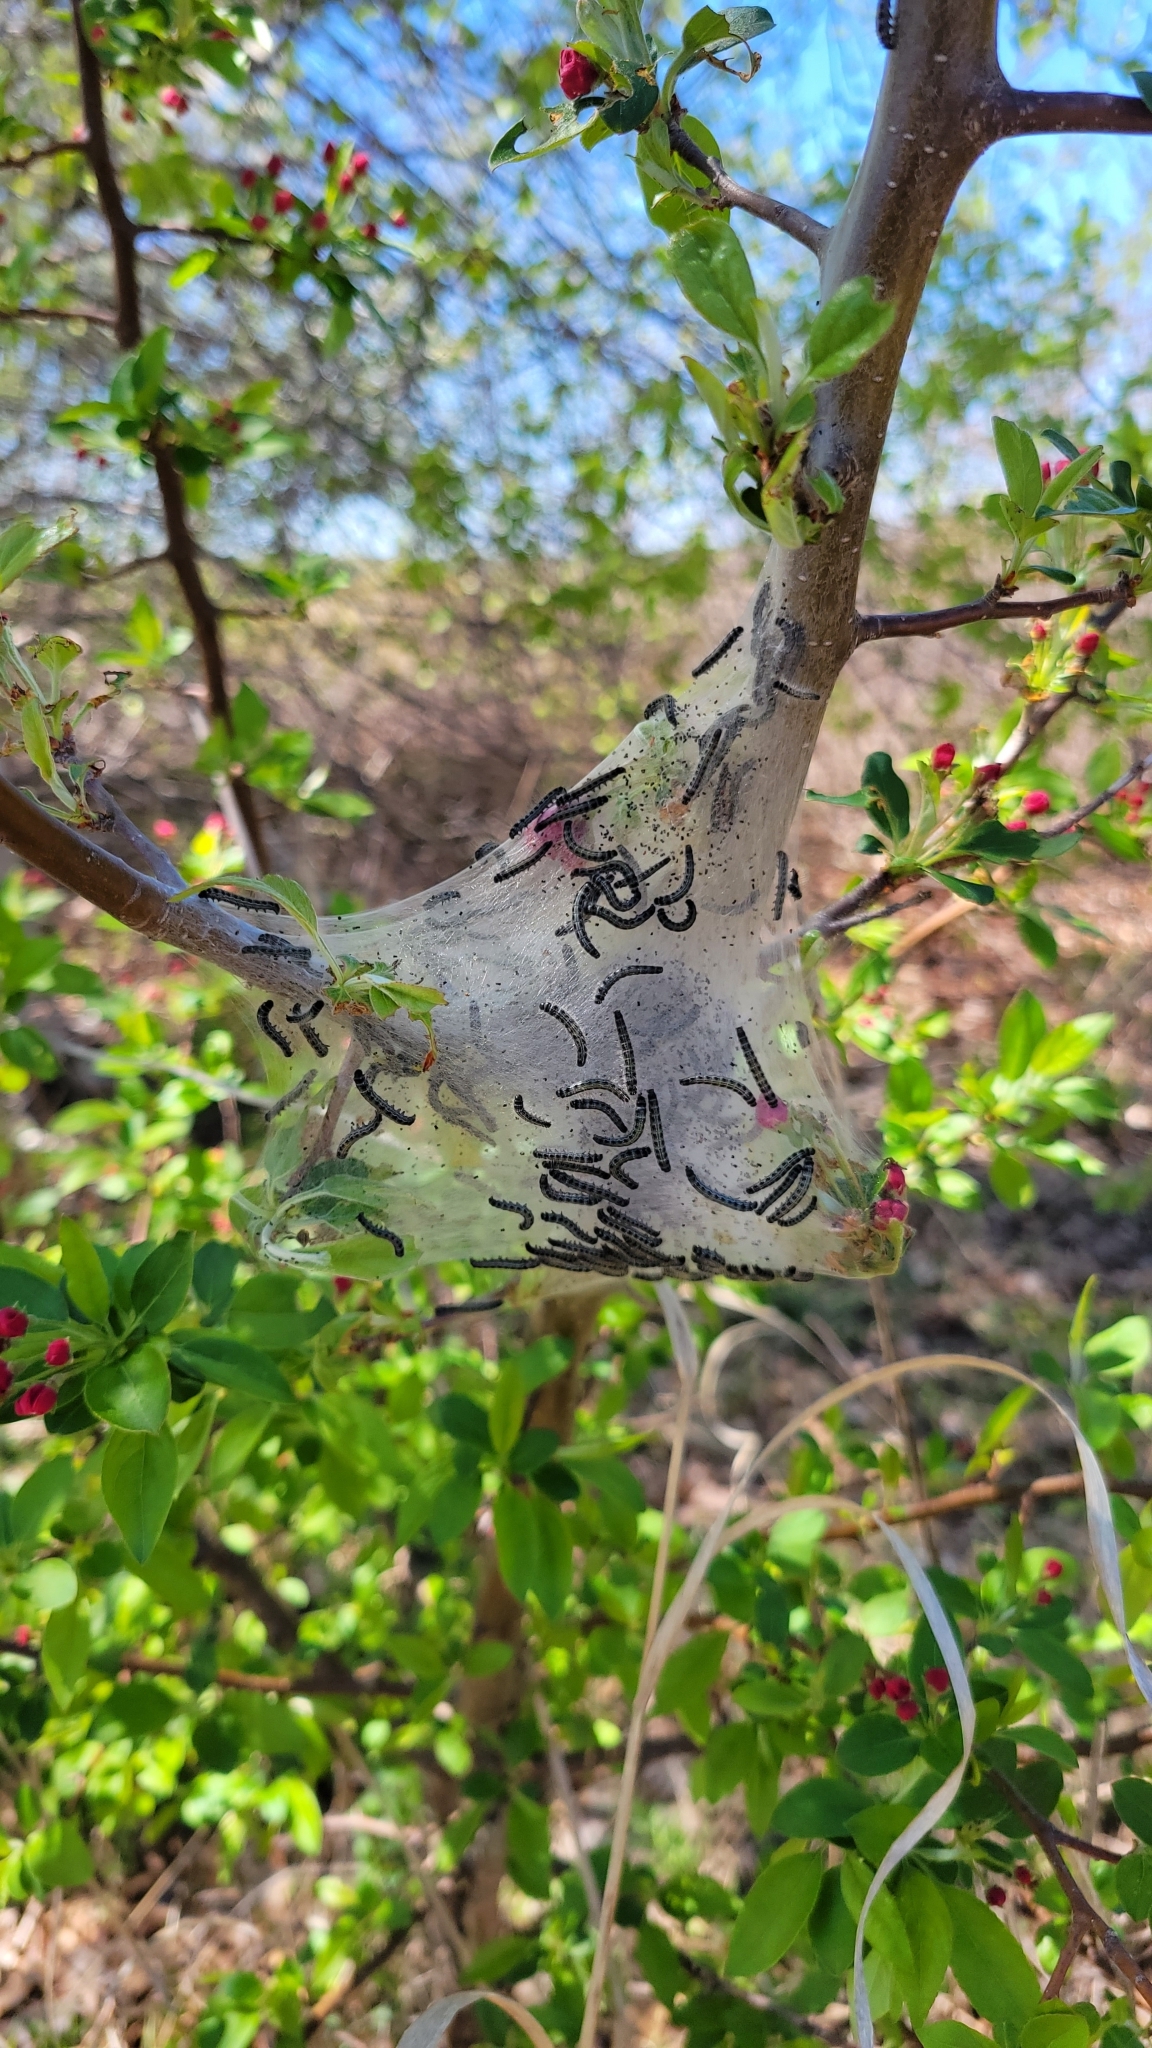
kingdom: Animalia
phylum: Arthropoda
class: Insecta
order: Lepidoptera
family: Lasiocampidae
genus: Malacosoma
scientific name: Malacosoma americana
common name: Eastern tent caterpillar moth
